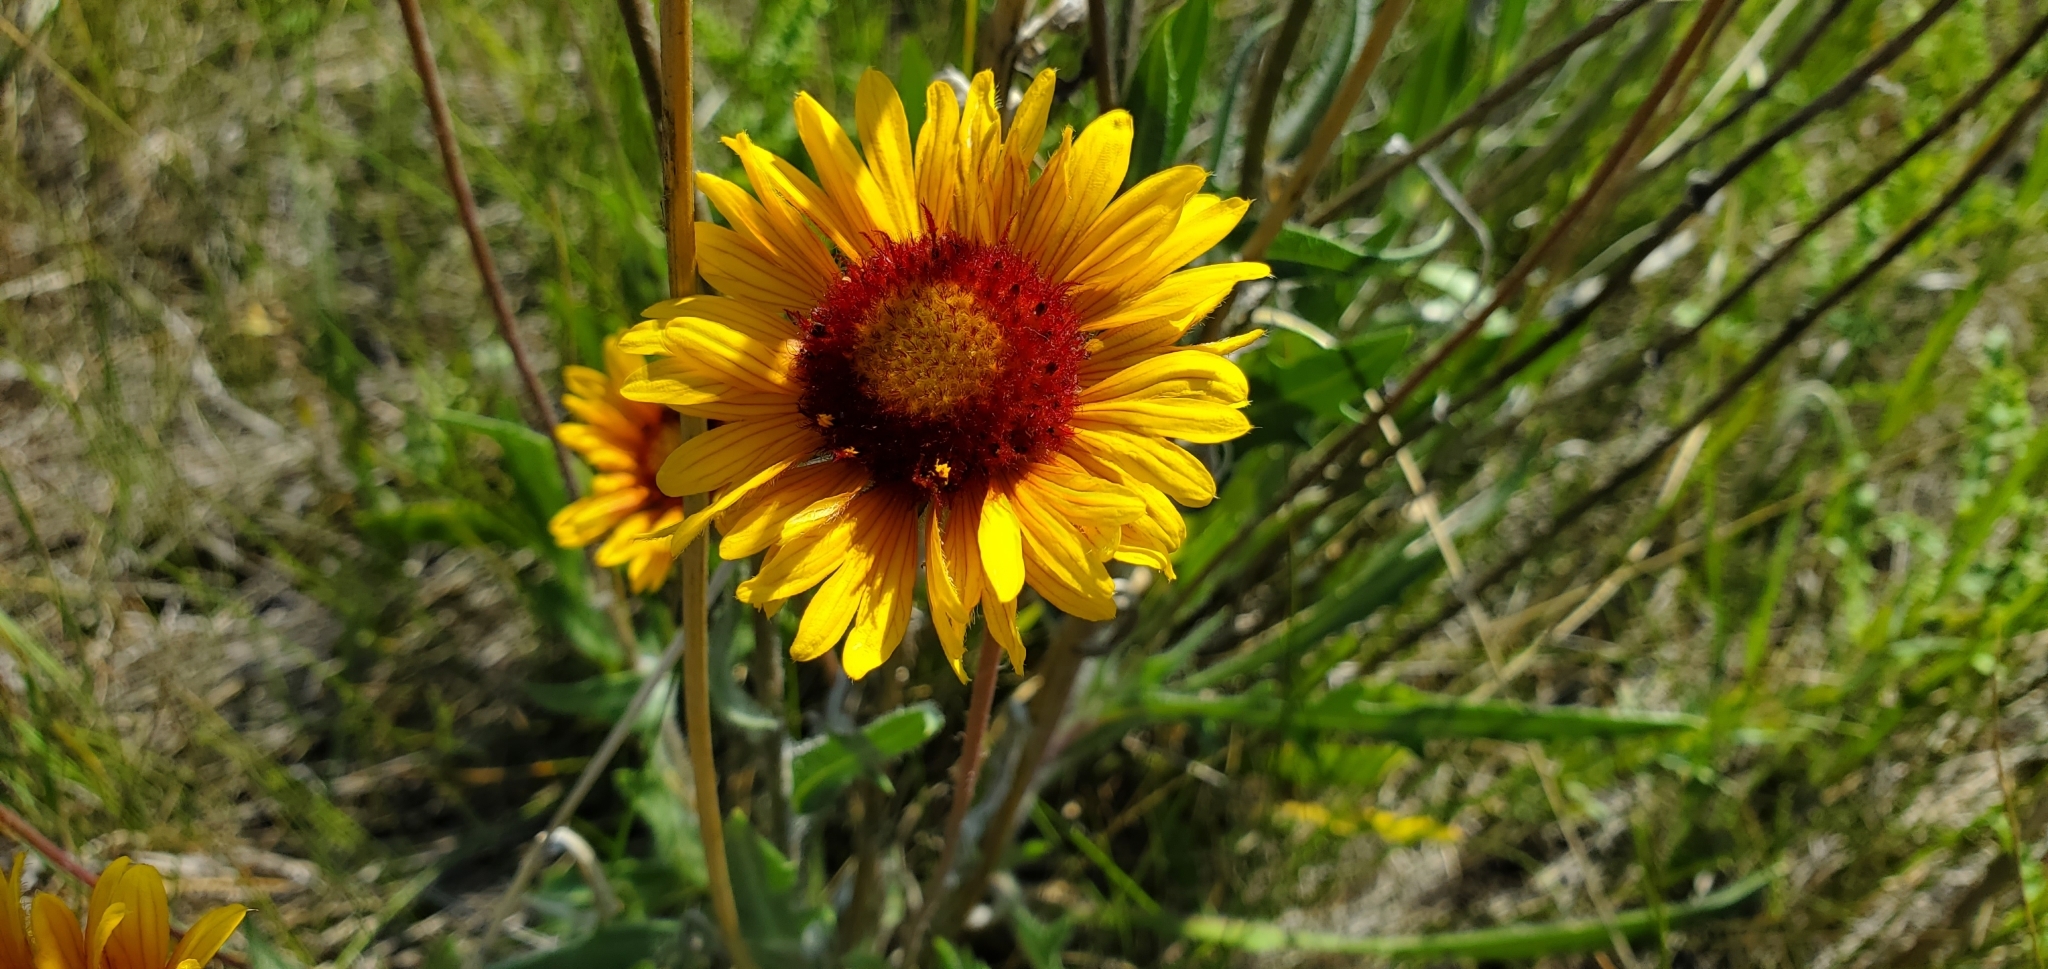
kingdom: Plantae
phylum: Tracheophyta
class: Magnoliopsida
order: Asterales
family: Asteraceae
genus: Gaillardia
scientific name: Gaillardia aristata
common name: Blanket-flower
